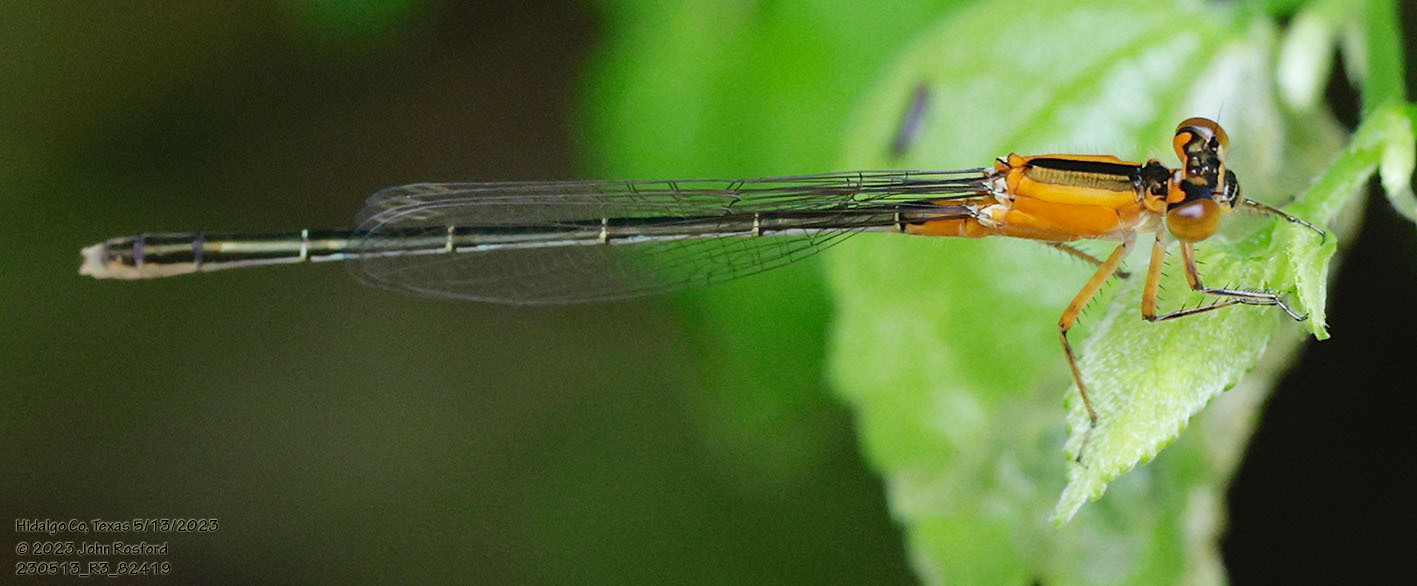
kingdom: Animalia
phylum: Arthropoda
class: Insecta
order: Odonata
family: Coenagrionidae
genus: Ischnura
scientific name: Ischnura ramburii
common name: Rambur's forktail
